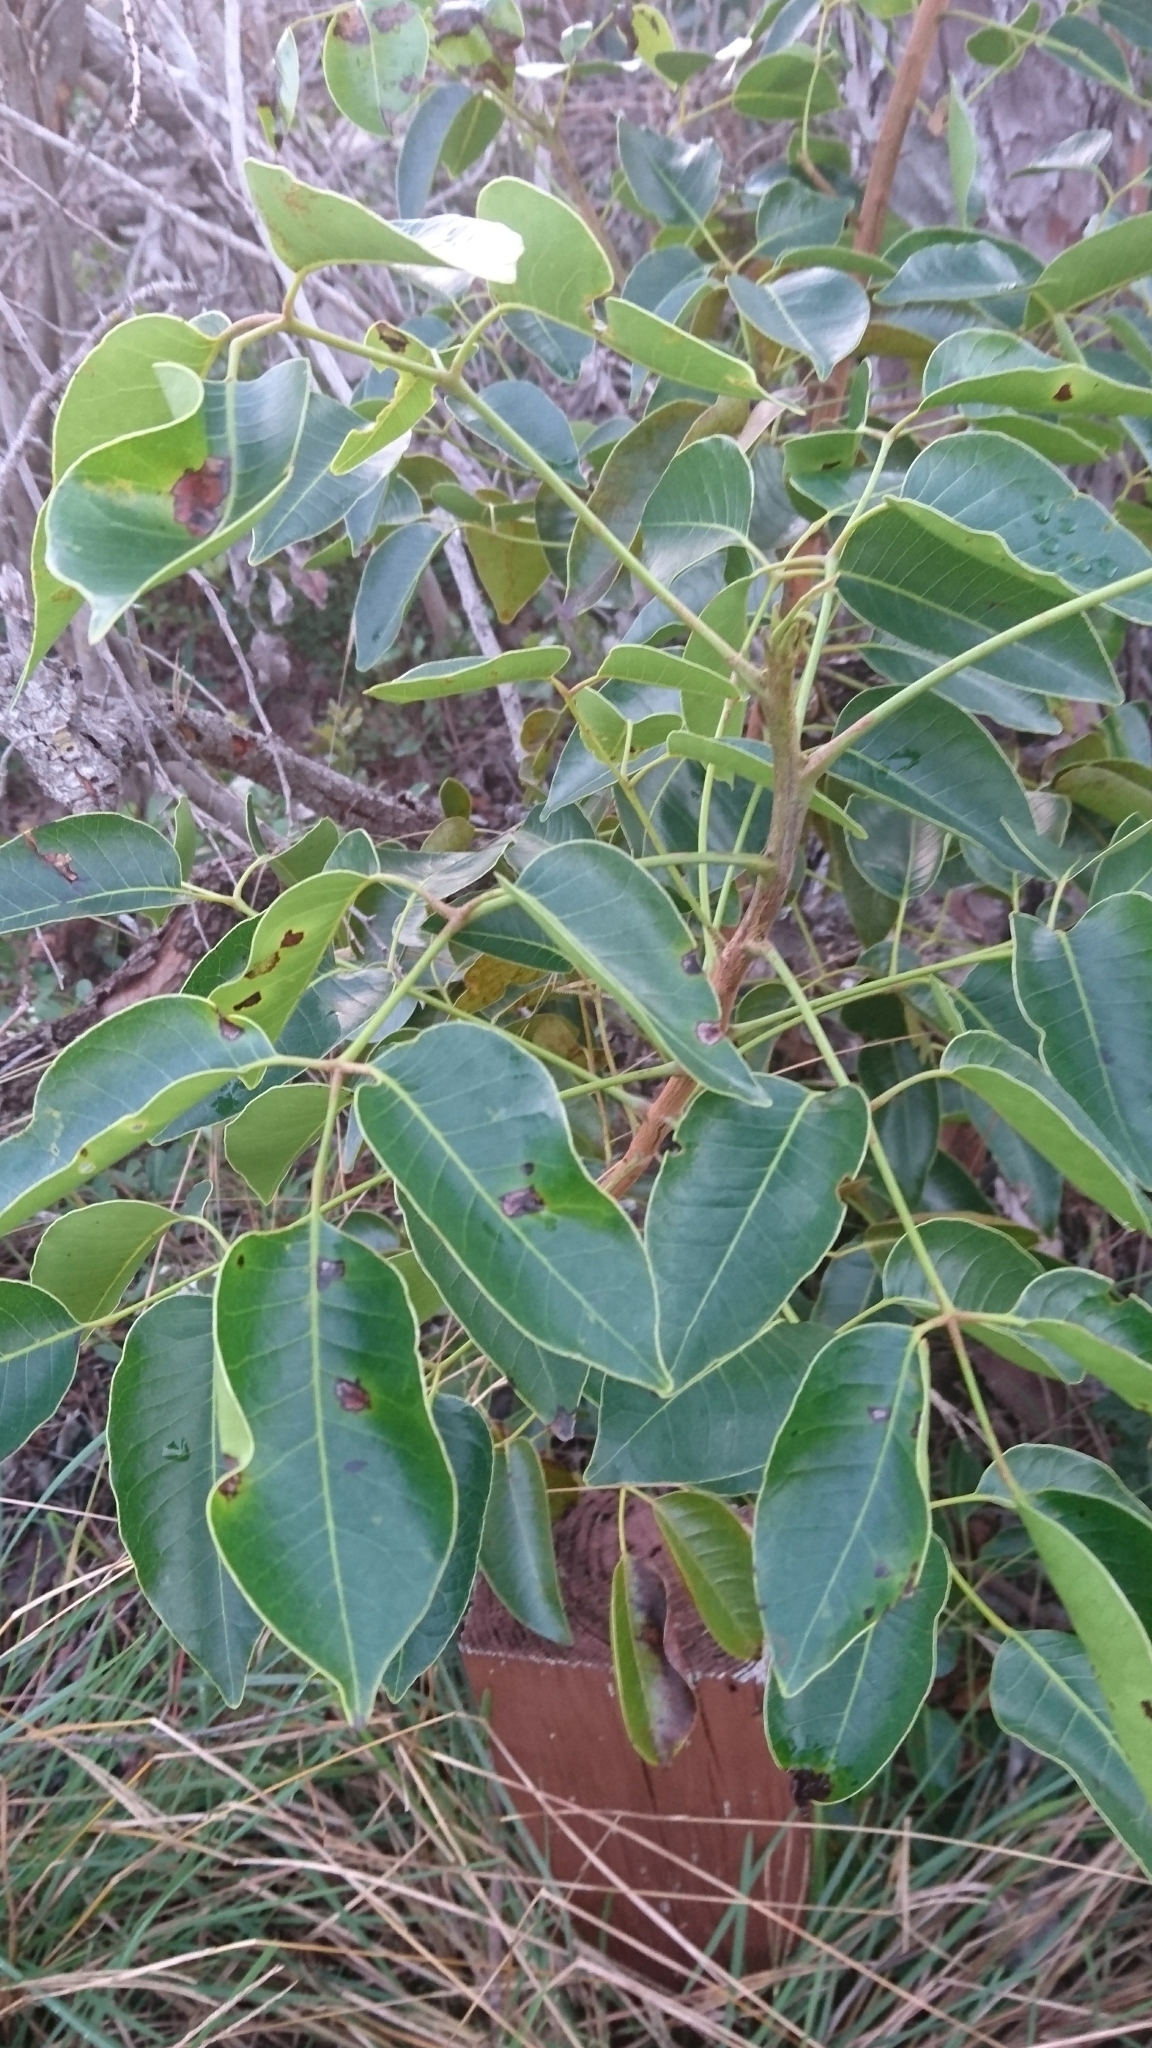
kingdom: Plantae
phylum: Tracheophyta
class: Magnoliopsida
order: Sapindales
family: Anacardiaceae
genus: Metopium
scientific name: Metopium toxiferum
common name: Florida poisontree
